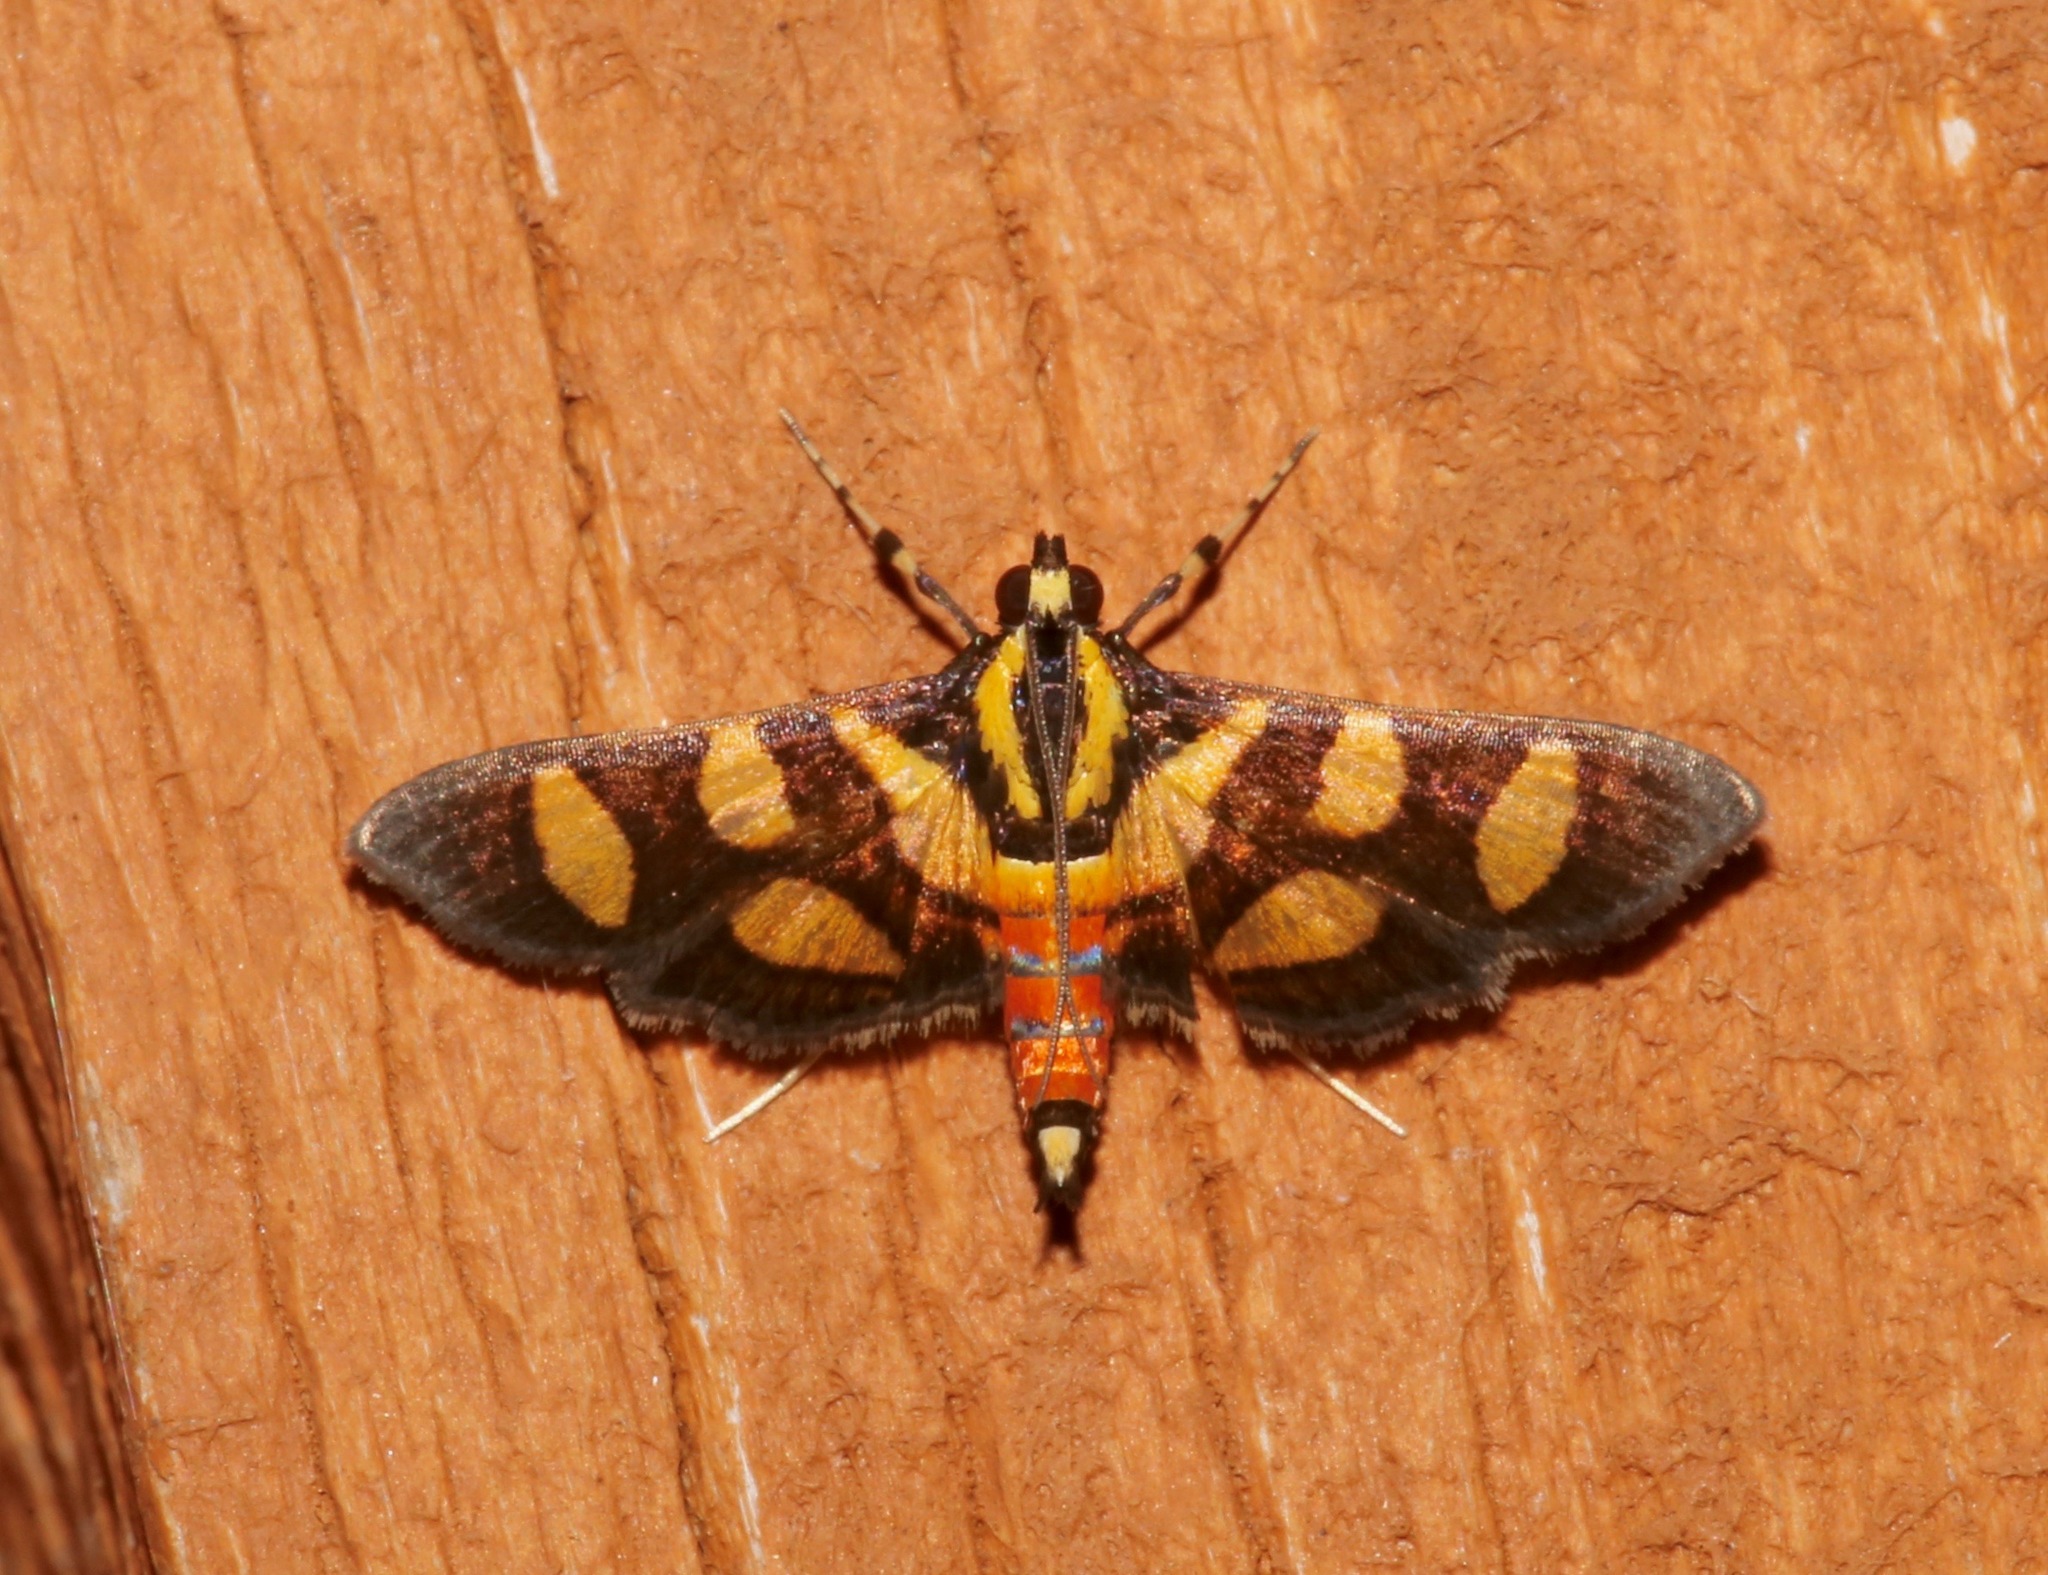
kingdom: Animalia
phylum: Arthropoda
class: Insecta
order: Lepidoptera
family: Crambidae
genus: Syngamia
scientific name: Syngamia florella
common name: Orange-spotted flower moth
